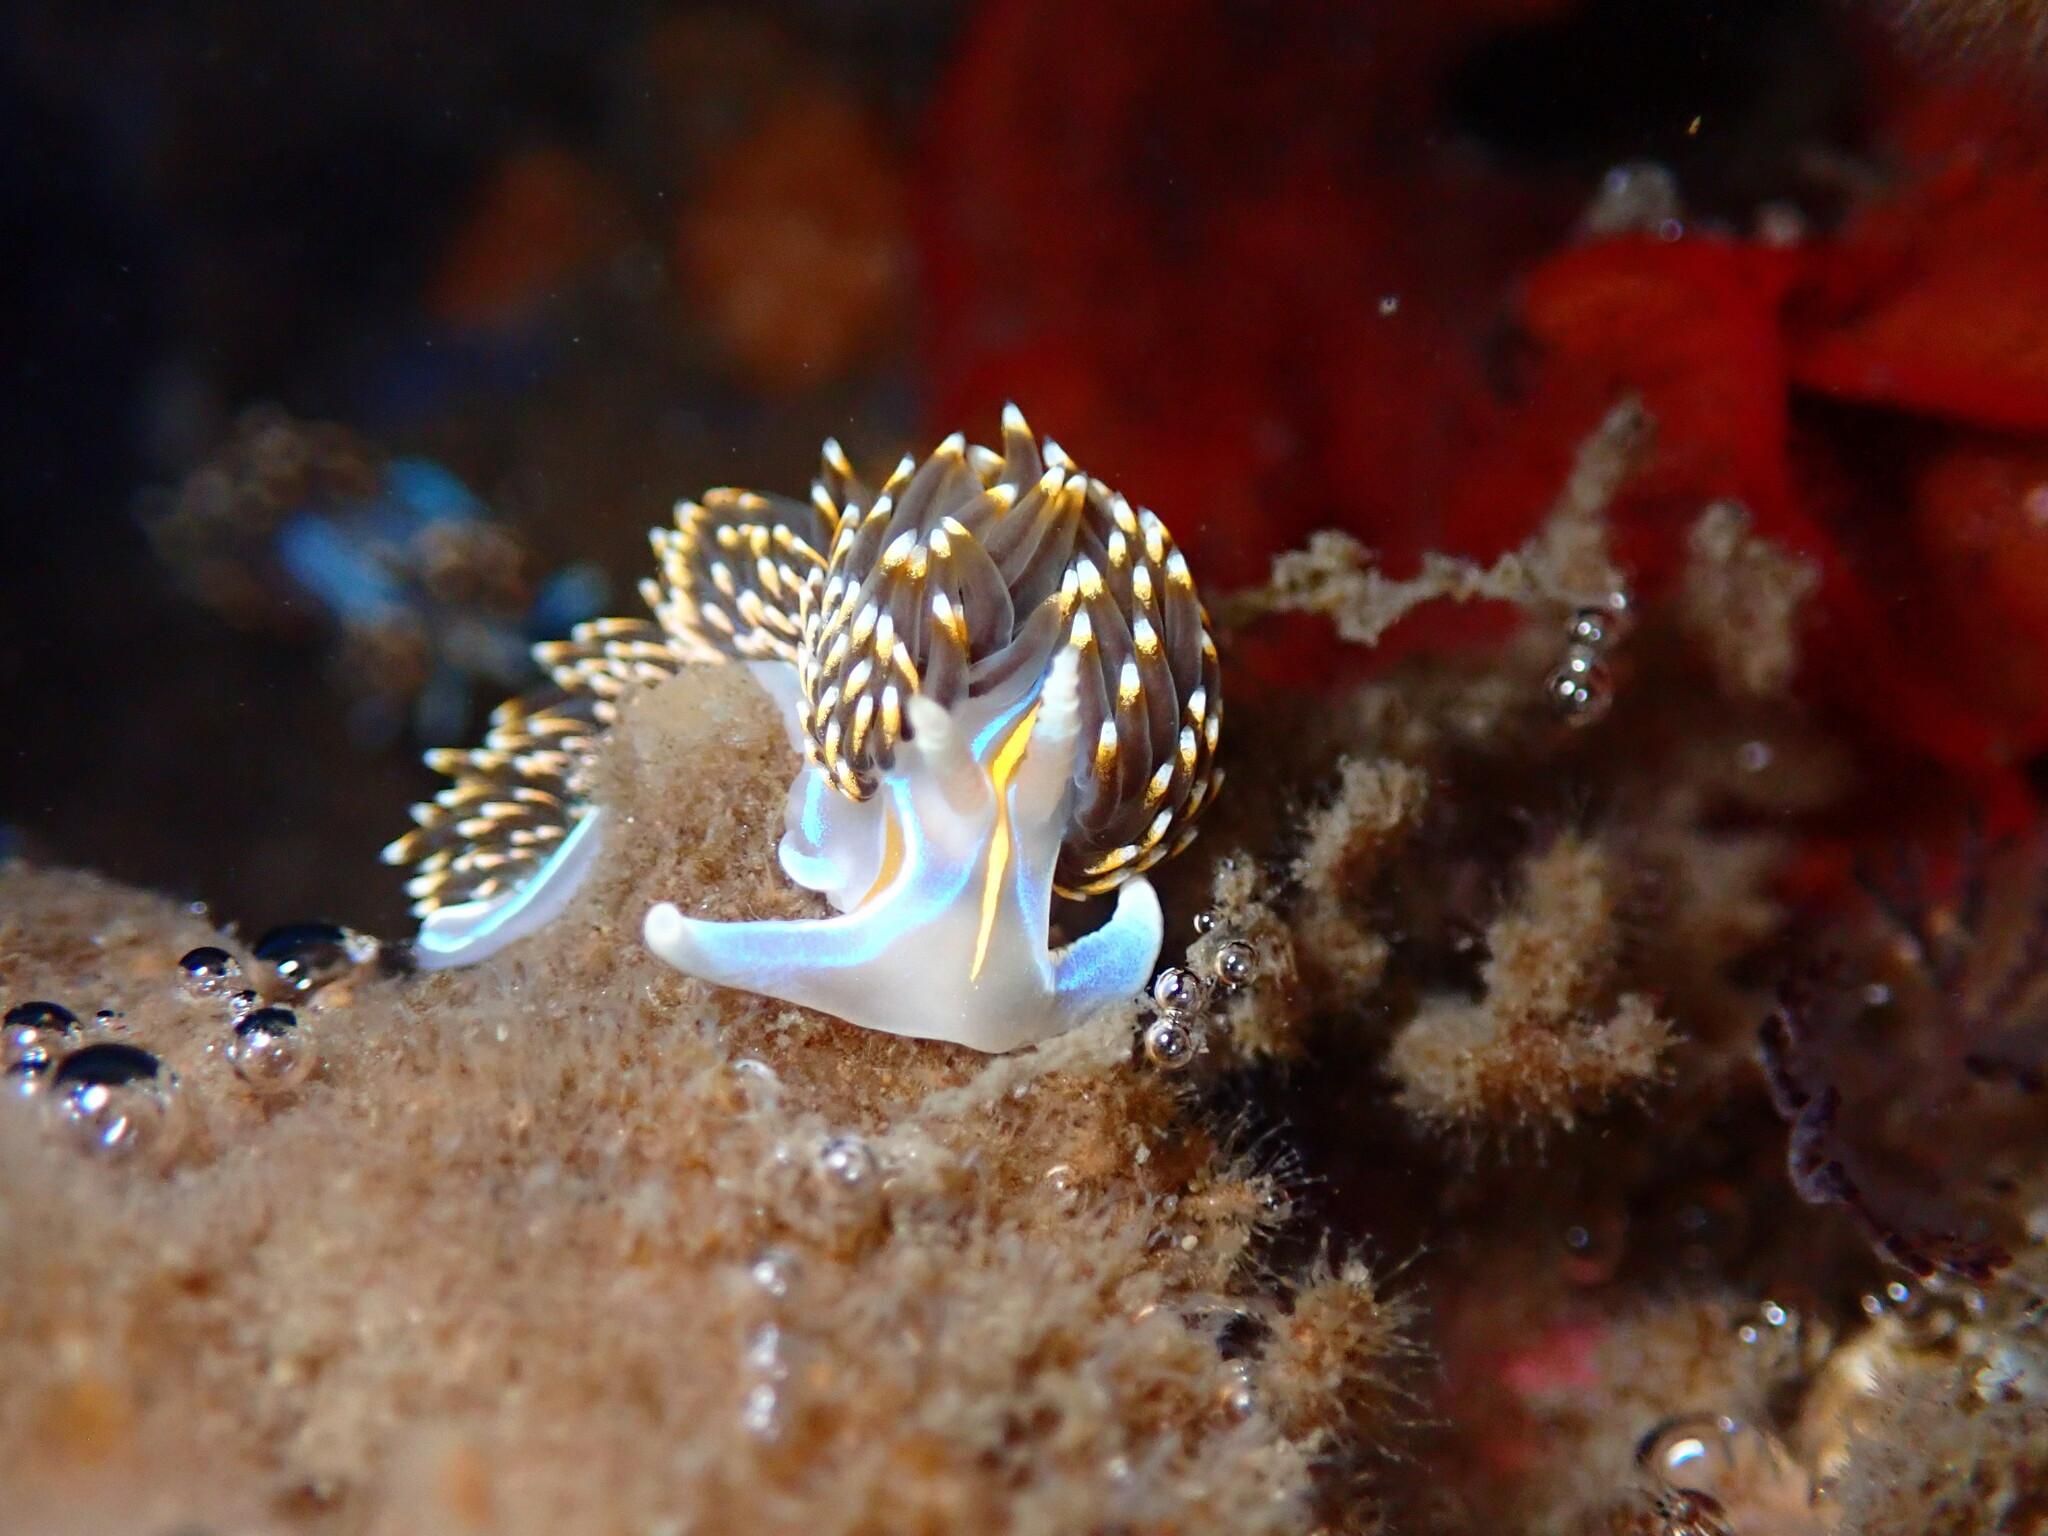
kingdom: Animalia
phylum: Mollusca
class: Gastropoda
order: Nudibranchia
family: Myrrhinidae
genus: Hermissenda
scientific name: Hermissenda opalescens
